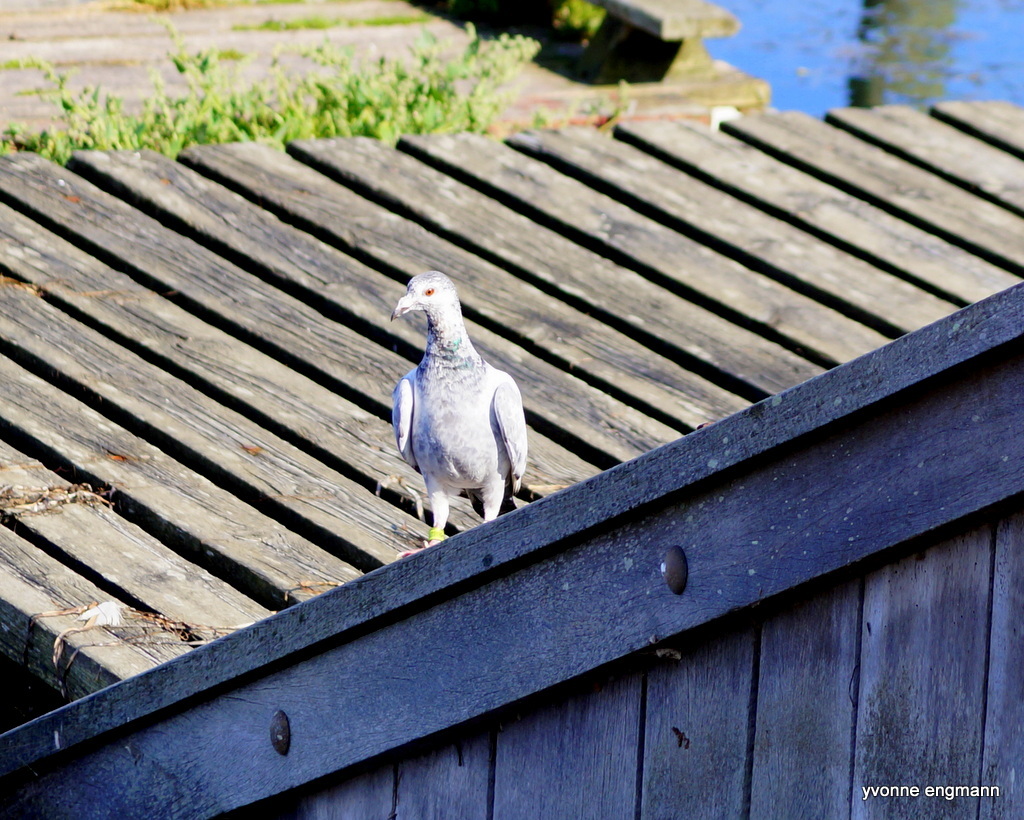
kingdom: Animalia
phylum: Chordata
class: Aves
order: Columbiformes
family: Columbidae
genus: Columba
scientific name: Columba livia
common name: Rock pigeon
